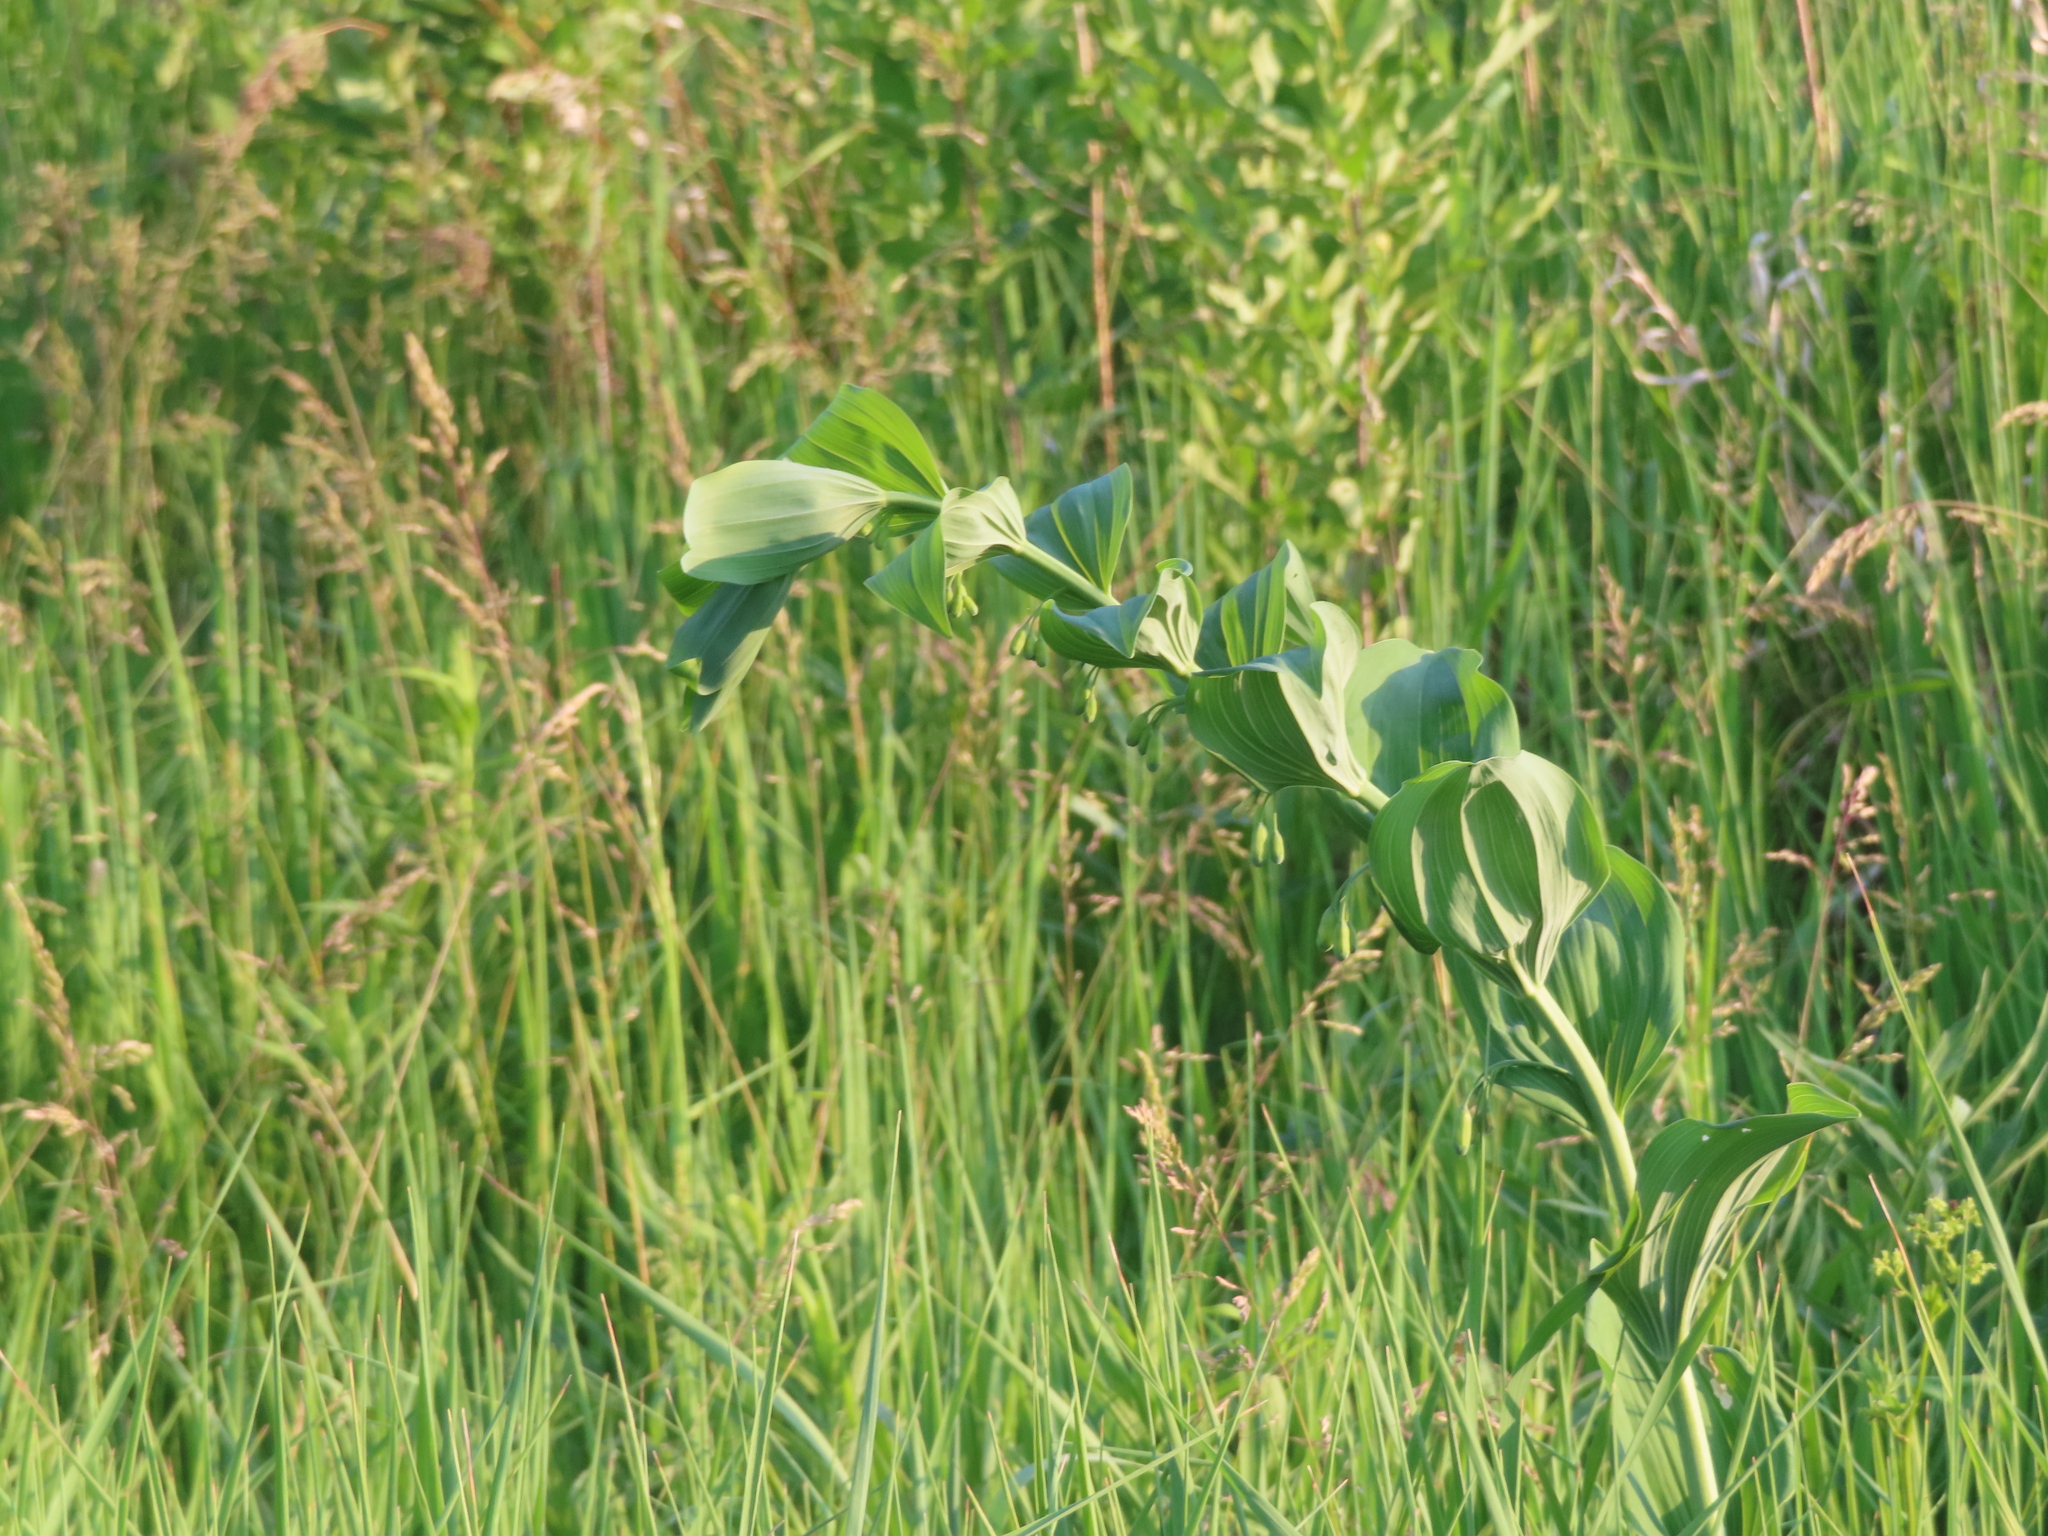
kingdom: Plantae
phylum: Tracheophyta
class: Liliopsida
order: Asparagales
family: Asparagaceae
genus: Polygonatum
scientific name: Polygonatum biflorum
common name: American solomon's-seal
